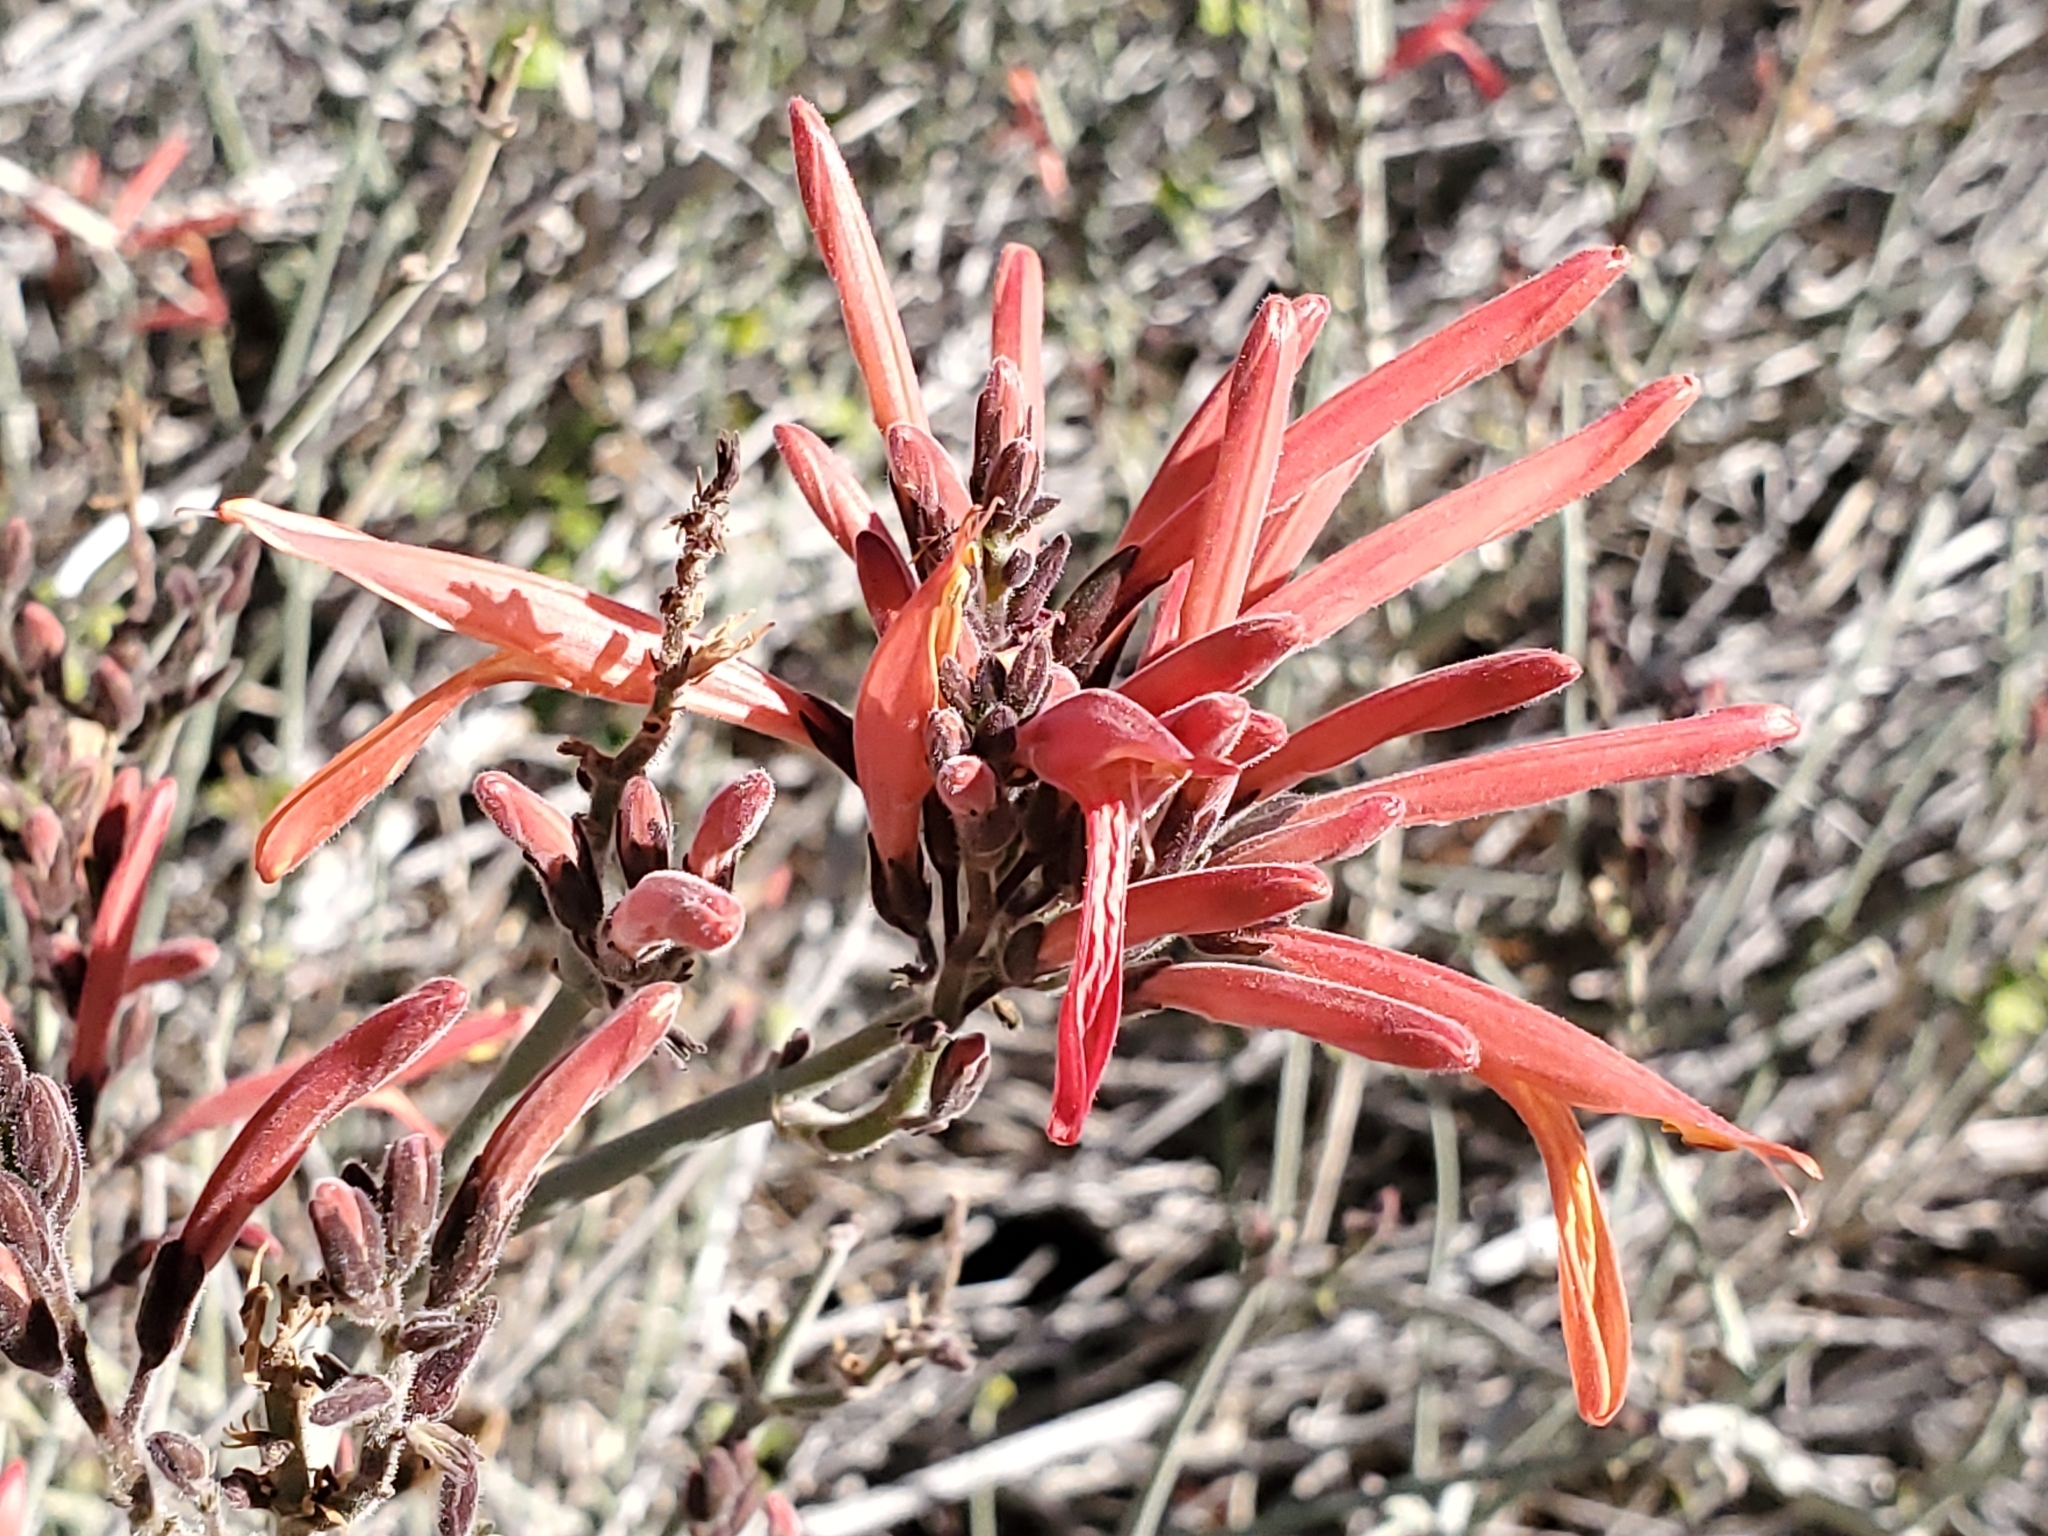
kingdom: Plantae
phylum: Tracheophyta
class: Magnoliopsida
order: Lamiales
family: Acanthaceae
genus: Justicia
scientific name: Justicia californica
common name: Chuparosa-honeysuckle
